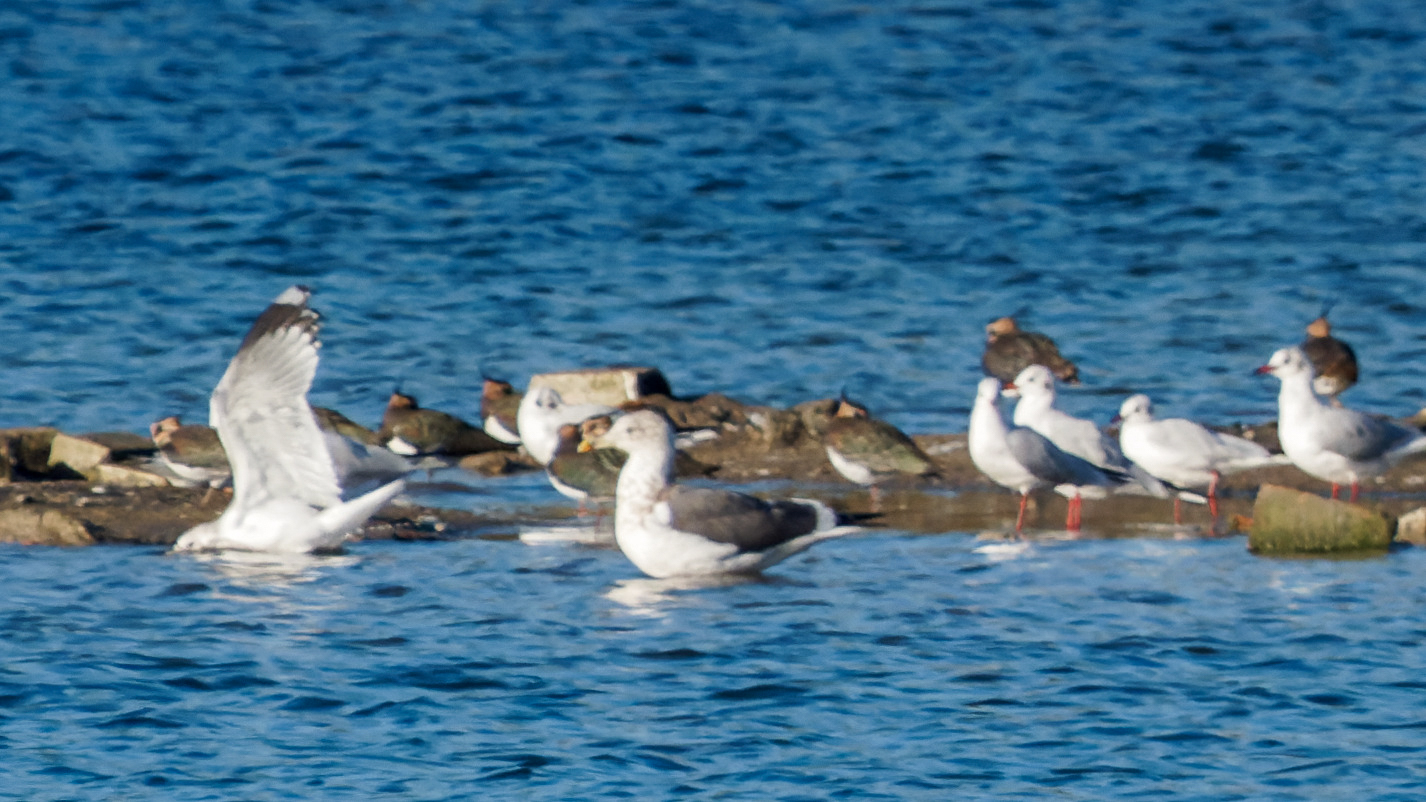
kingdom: Animalia
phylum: Chordata
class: Aves
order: Charadriiformes
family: Laridae
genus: Larus
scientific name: Larus fuscus
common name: Lesser black-backed gull
